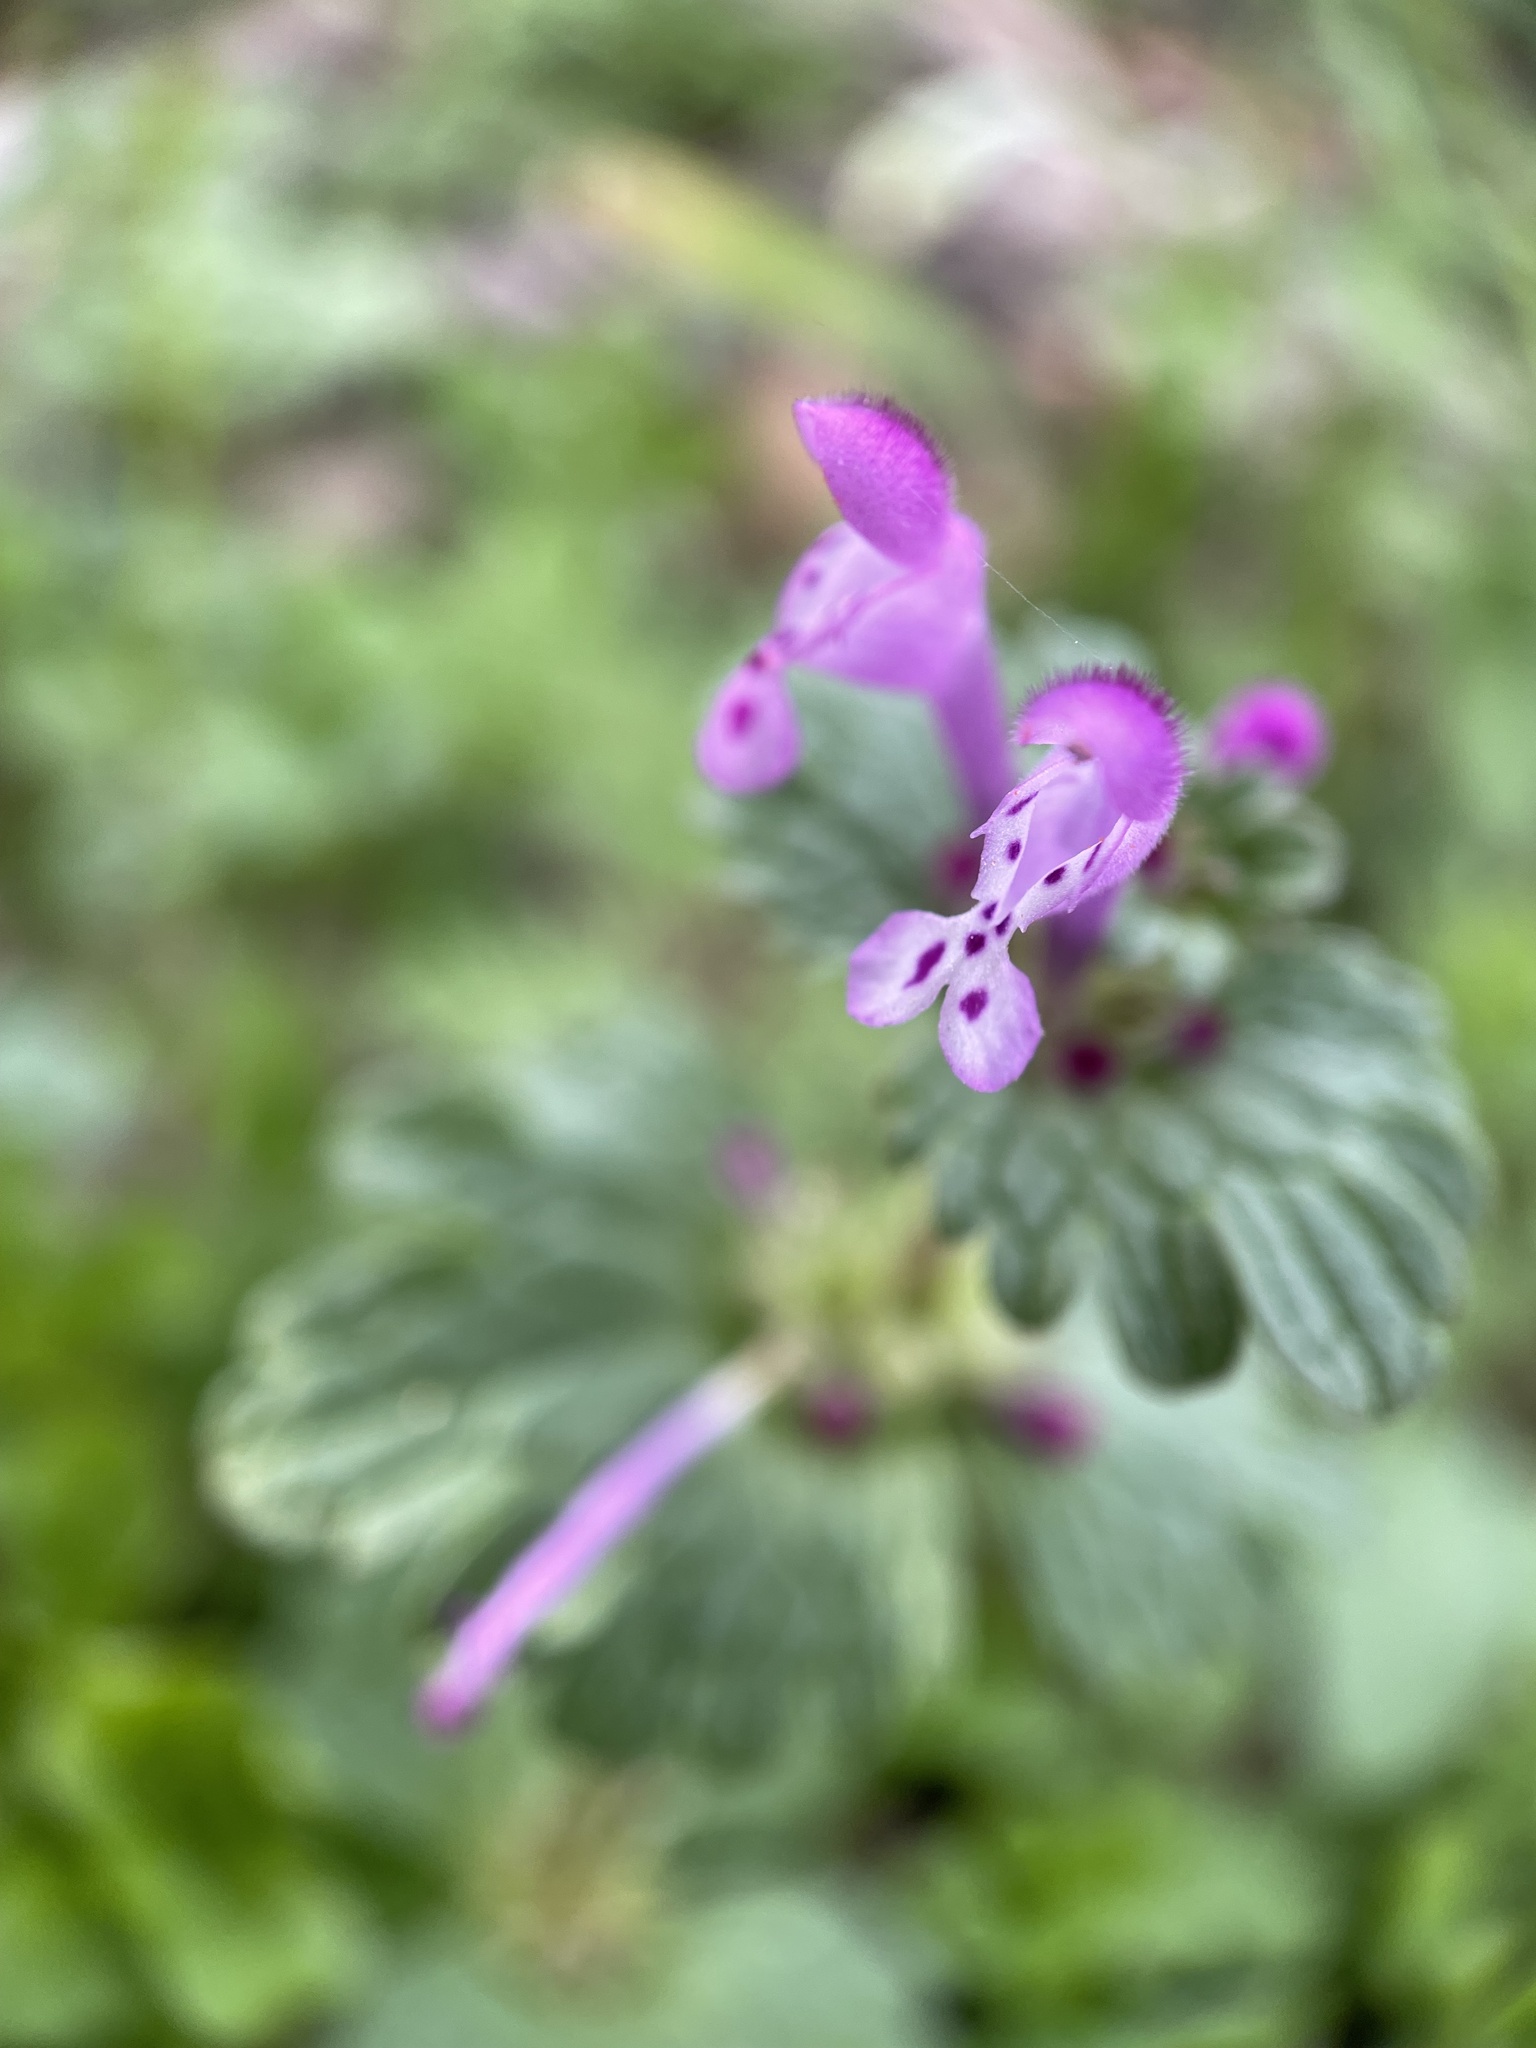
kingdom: Plantae
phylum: Tracheophyta
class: Magnoliopsida
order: Lamiales
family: Lamiaceae
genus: Lamium
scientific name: Lamium amplexicaule
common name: Henbit dead-nettle
